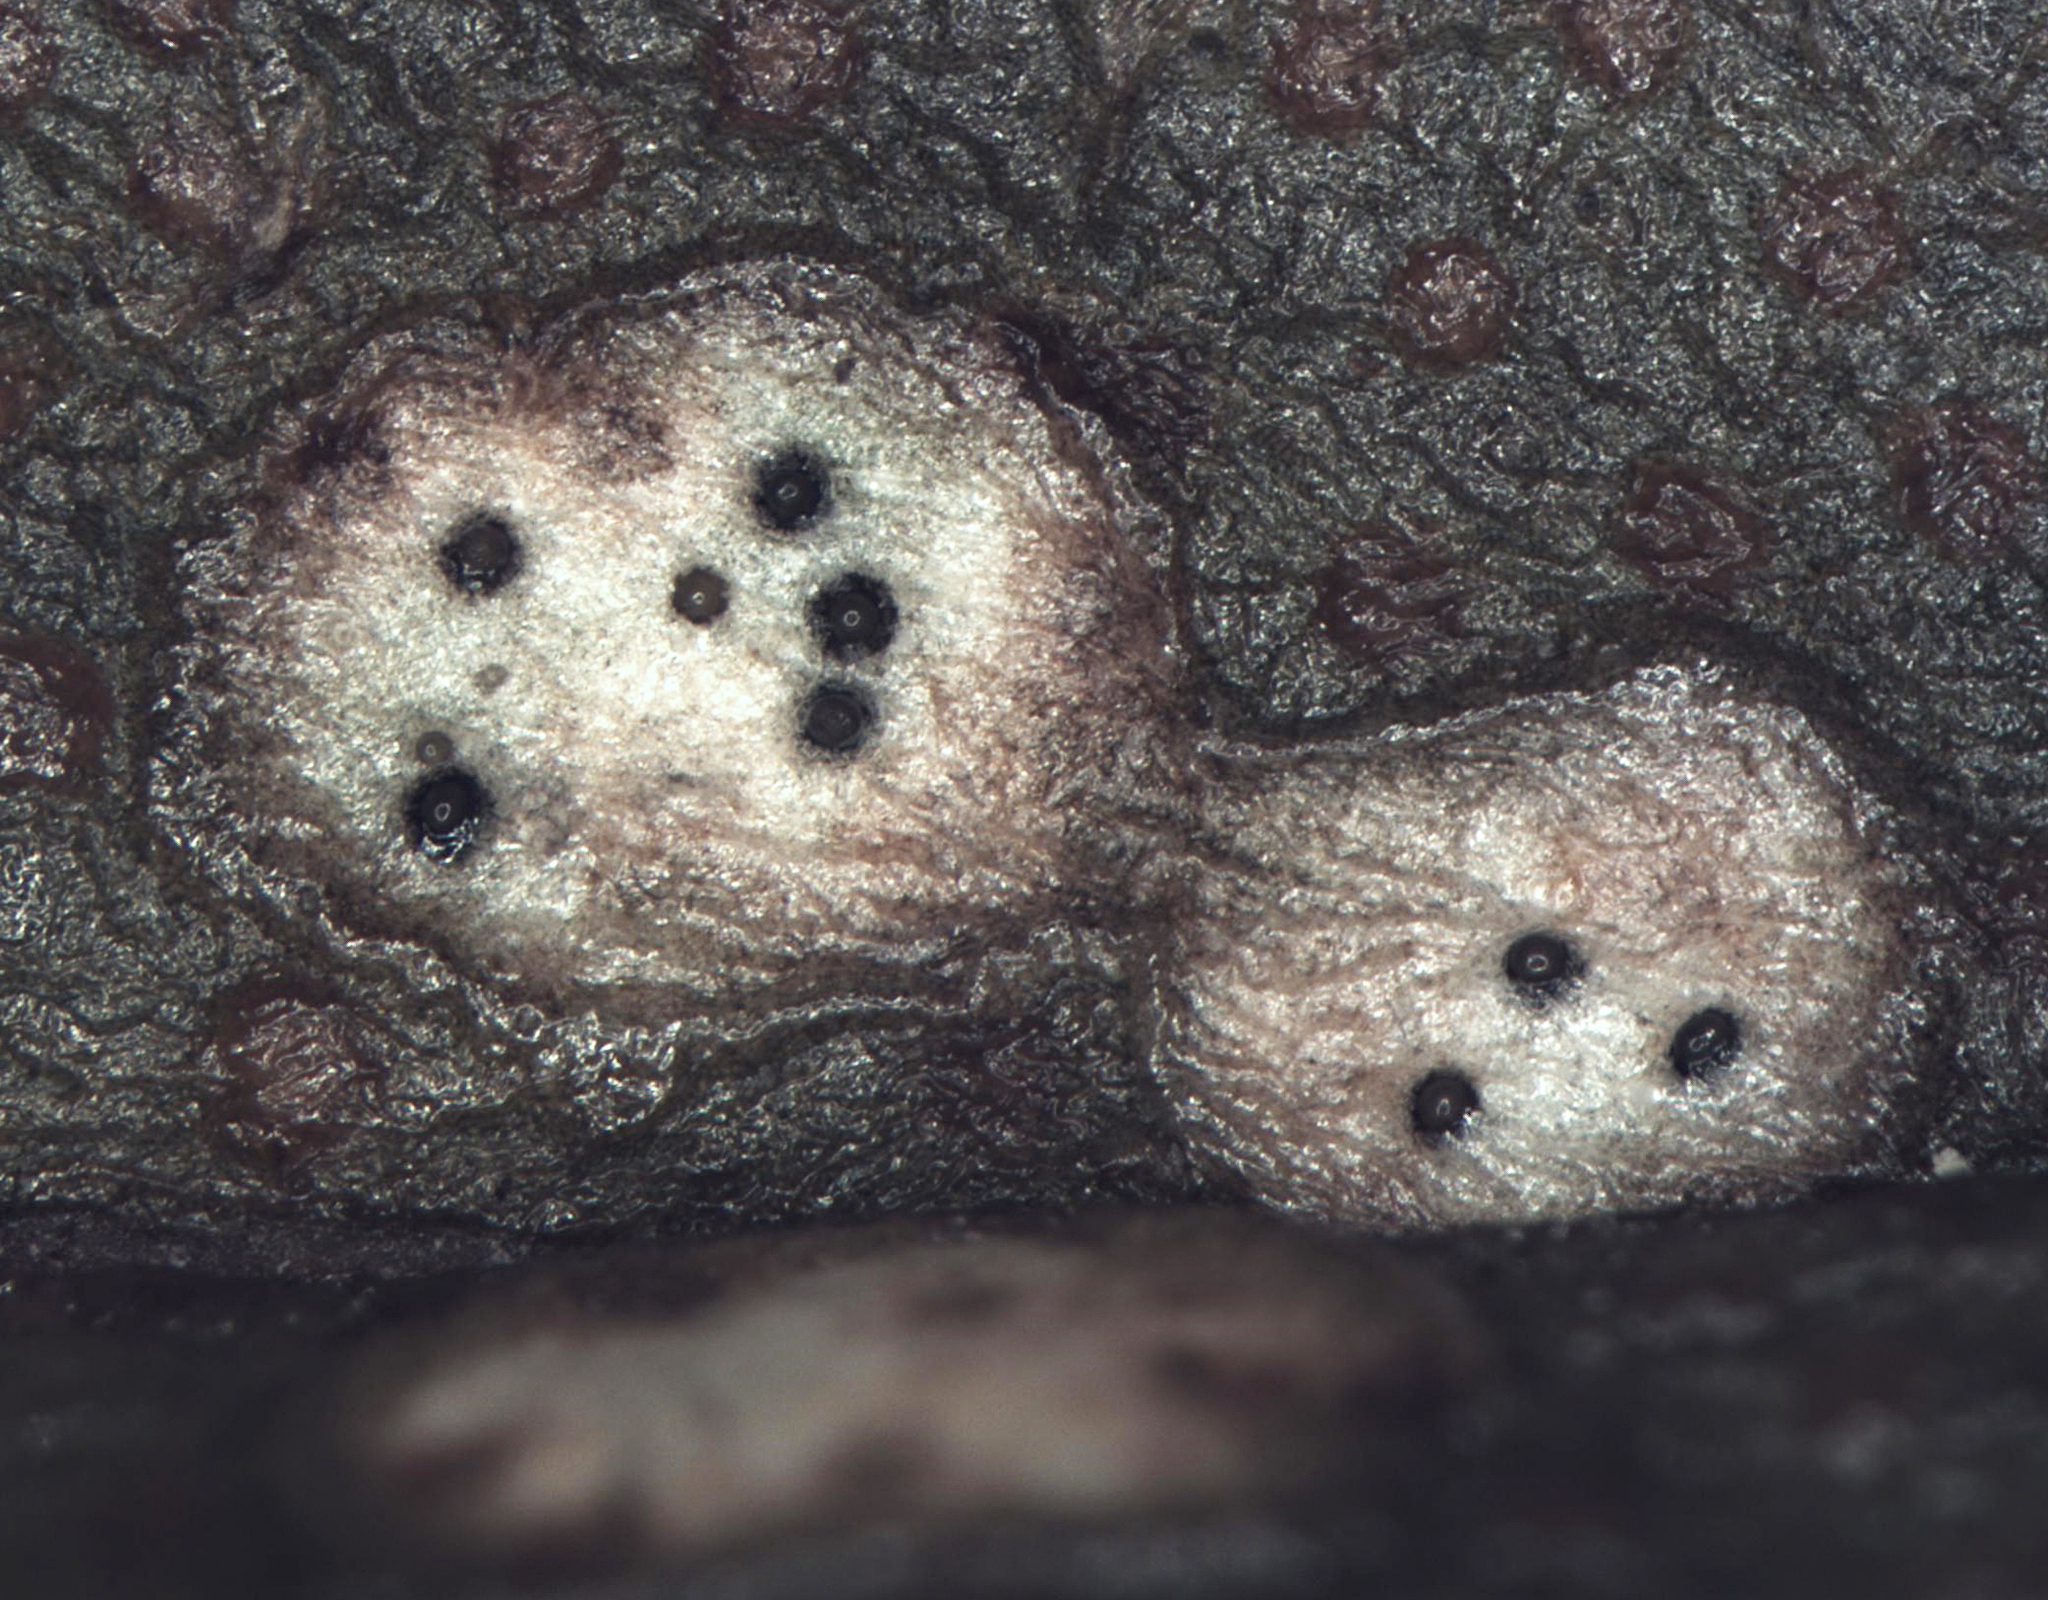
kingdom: Fungi
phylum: Ascomycota
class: Dothideomycetes
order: Mycosphaerellales
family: Mycosphaerellaceae
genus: Septoria
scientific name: Septoria colensoi
